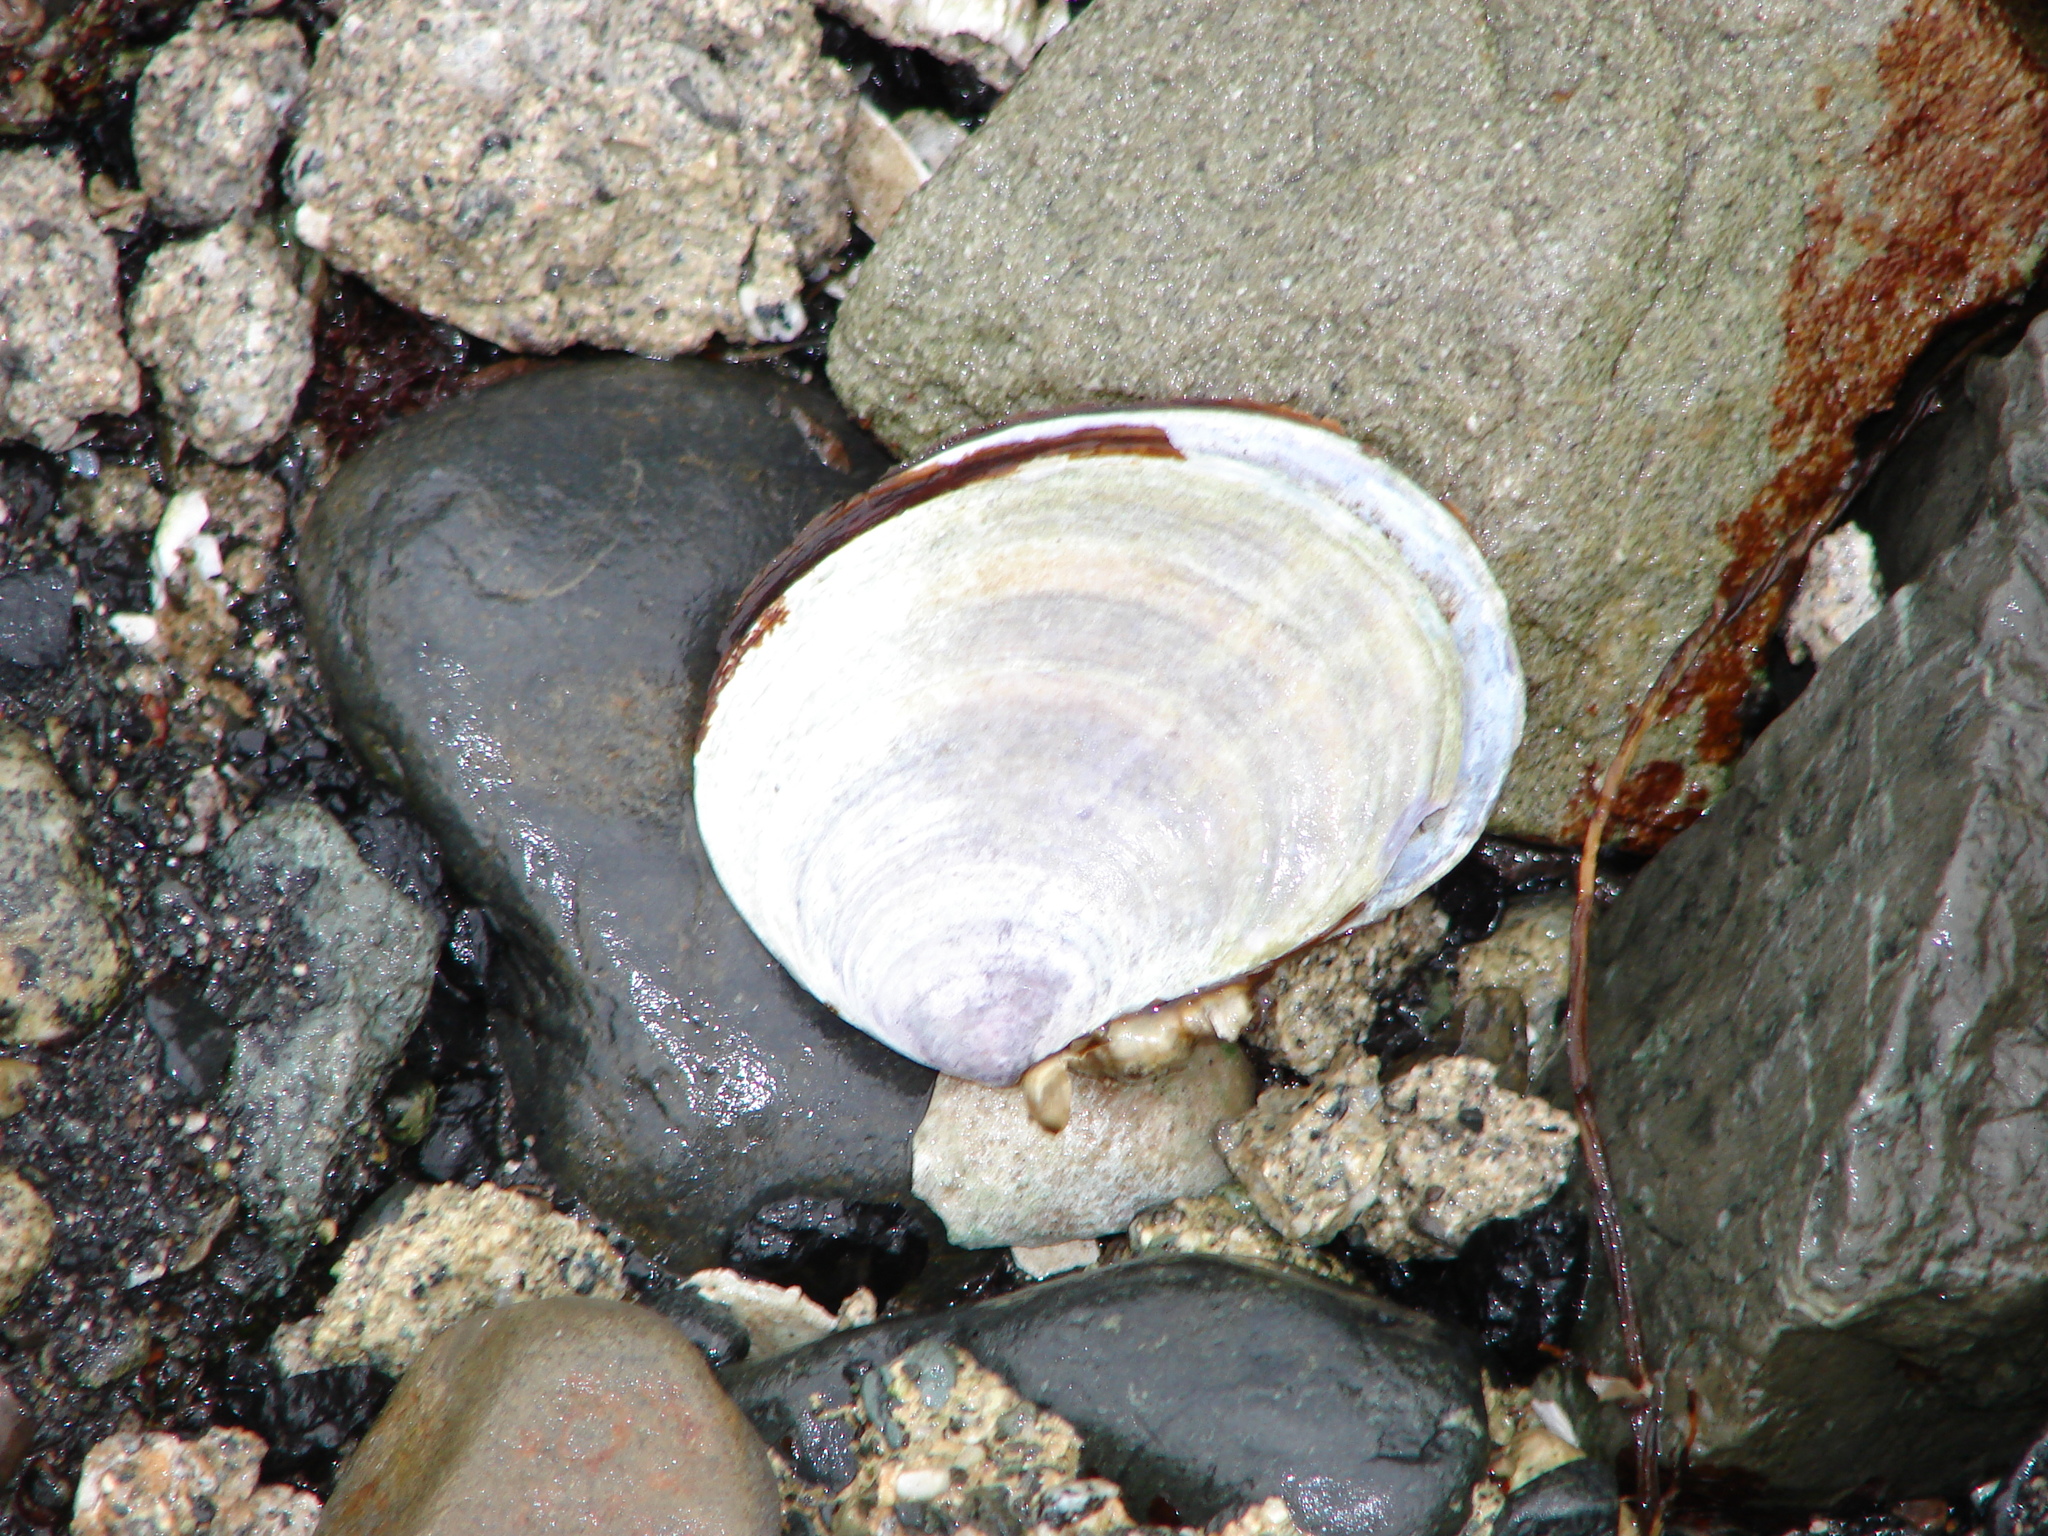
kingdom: Animalia
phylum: Mollusca
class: Bivalvia
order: Cardiida
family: Psammobiidae
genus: Nuttallia
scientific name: Nuttallia obscurata
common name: Purple mahogany-clam
